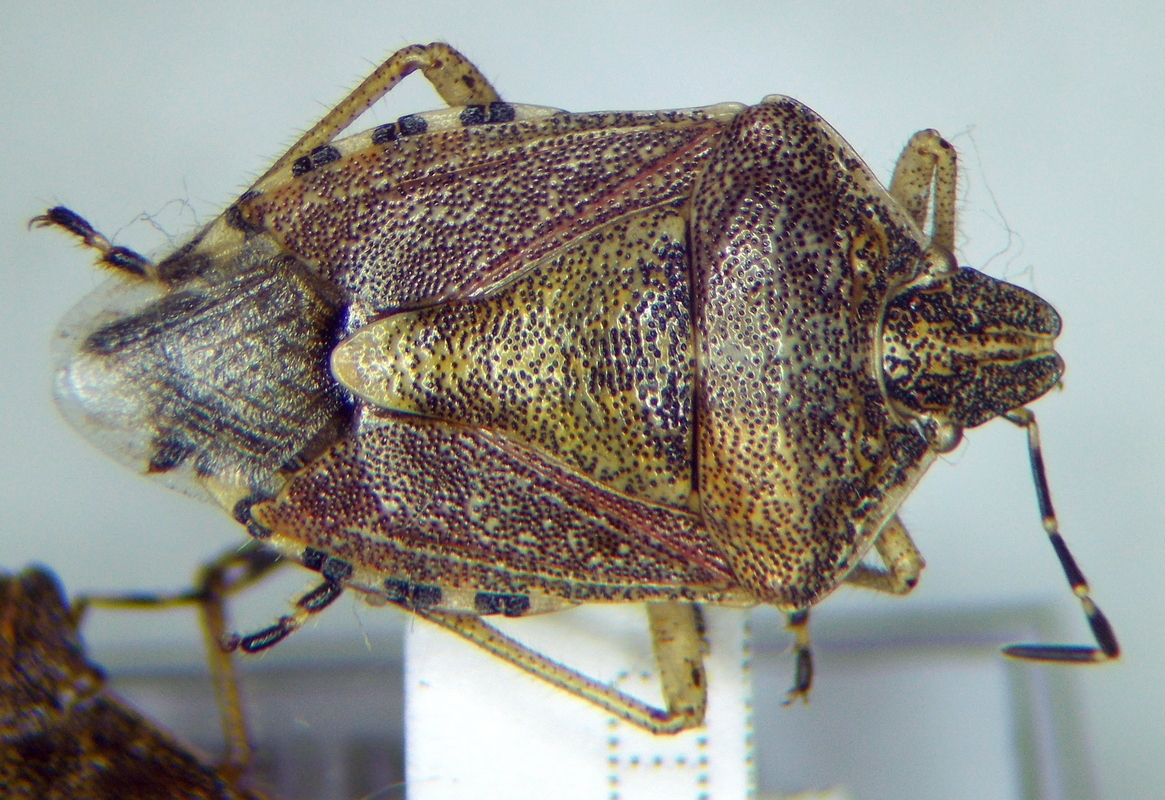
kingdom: Animalia
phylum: Arthropoda
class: Insecta
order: Hemiptera
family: Pentatomidae
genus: Dolycoris
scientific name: Dolycoris baccarum
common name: Sloe bug
